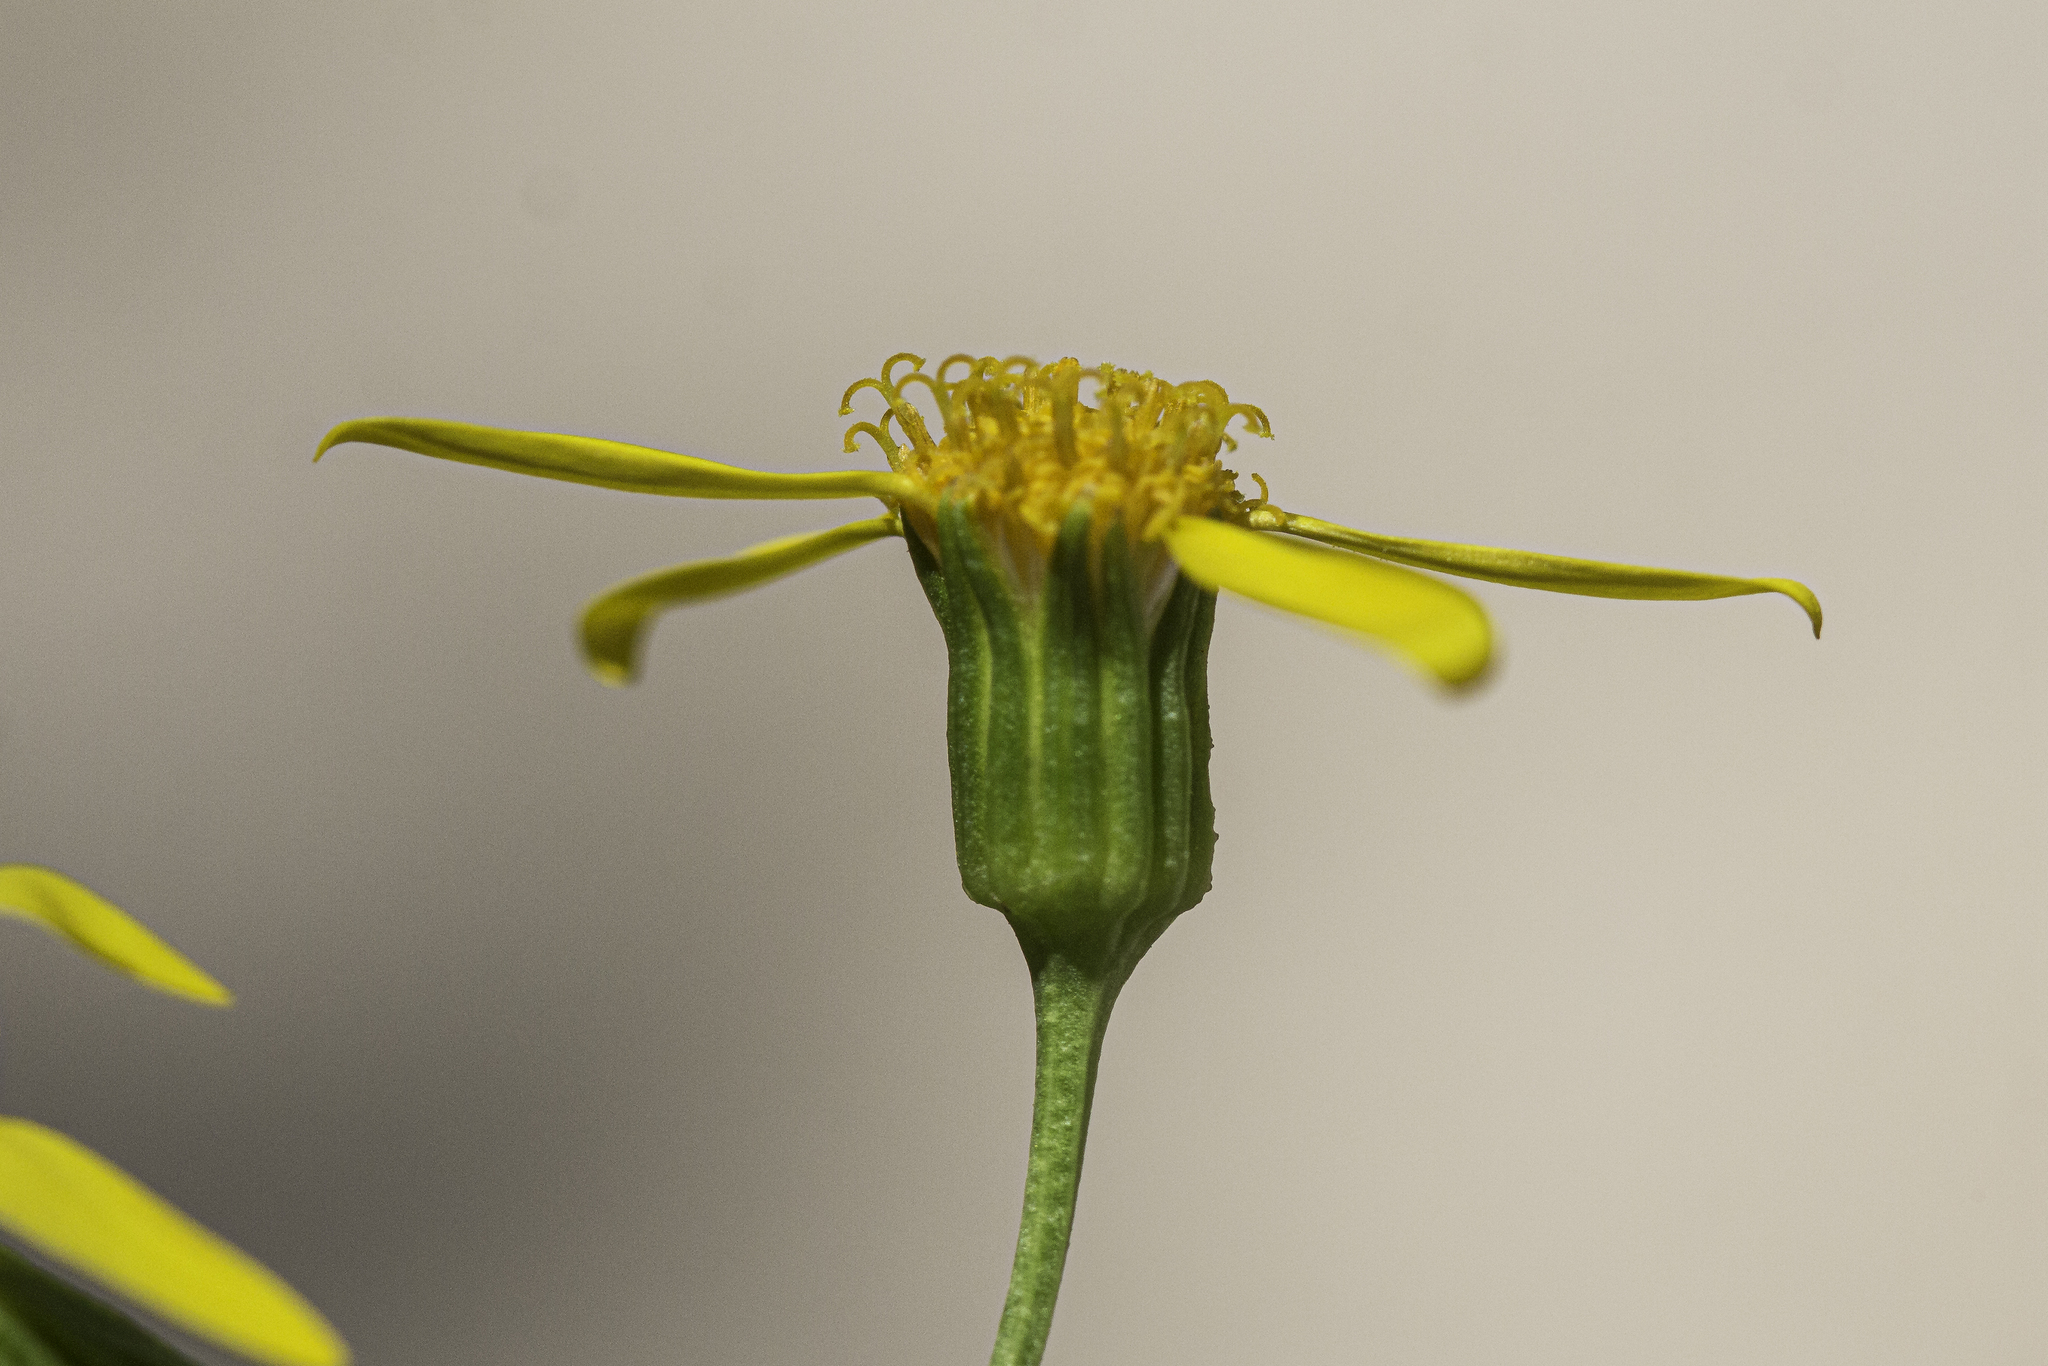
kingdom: Plantae
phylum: Tracheophyta
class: Magnoliopsida
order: Asterales
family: Asteraceae
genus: Packera
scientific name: Packera breweri
